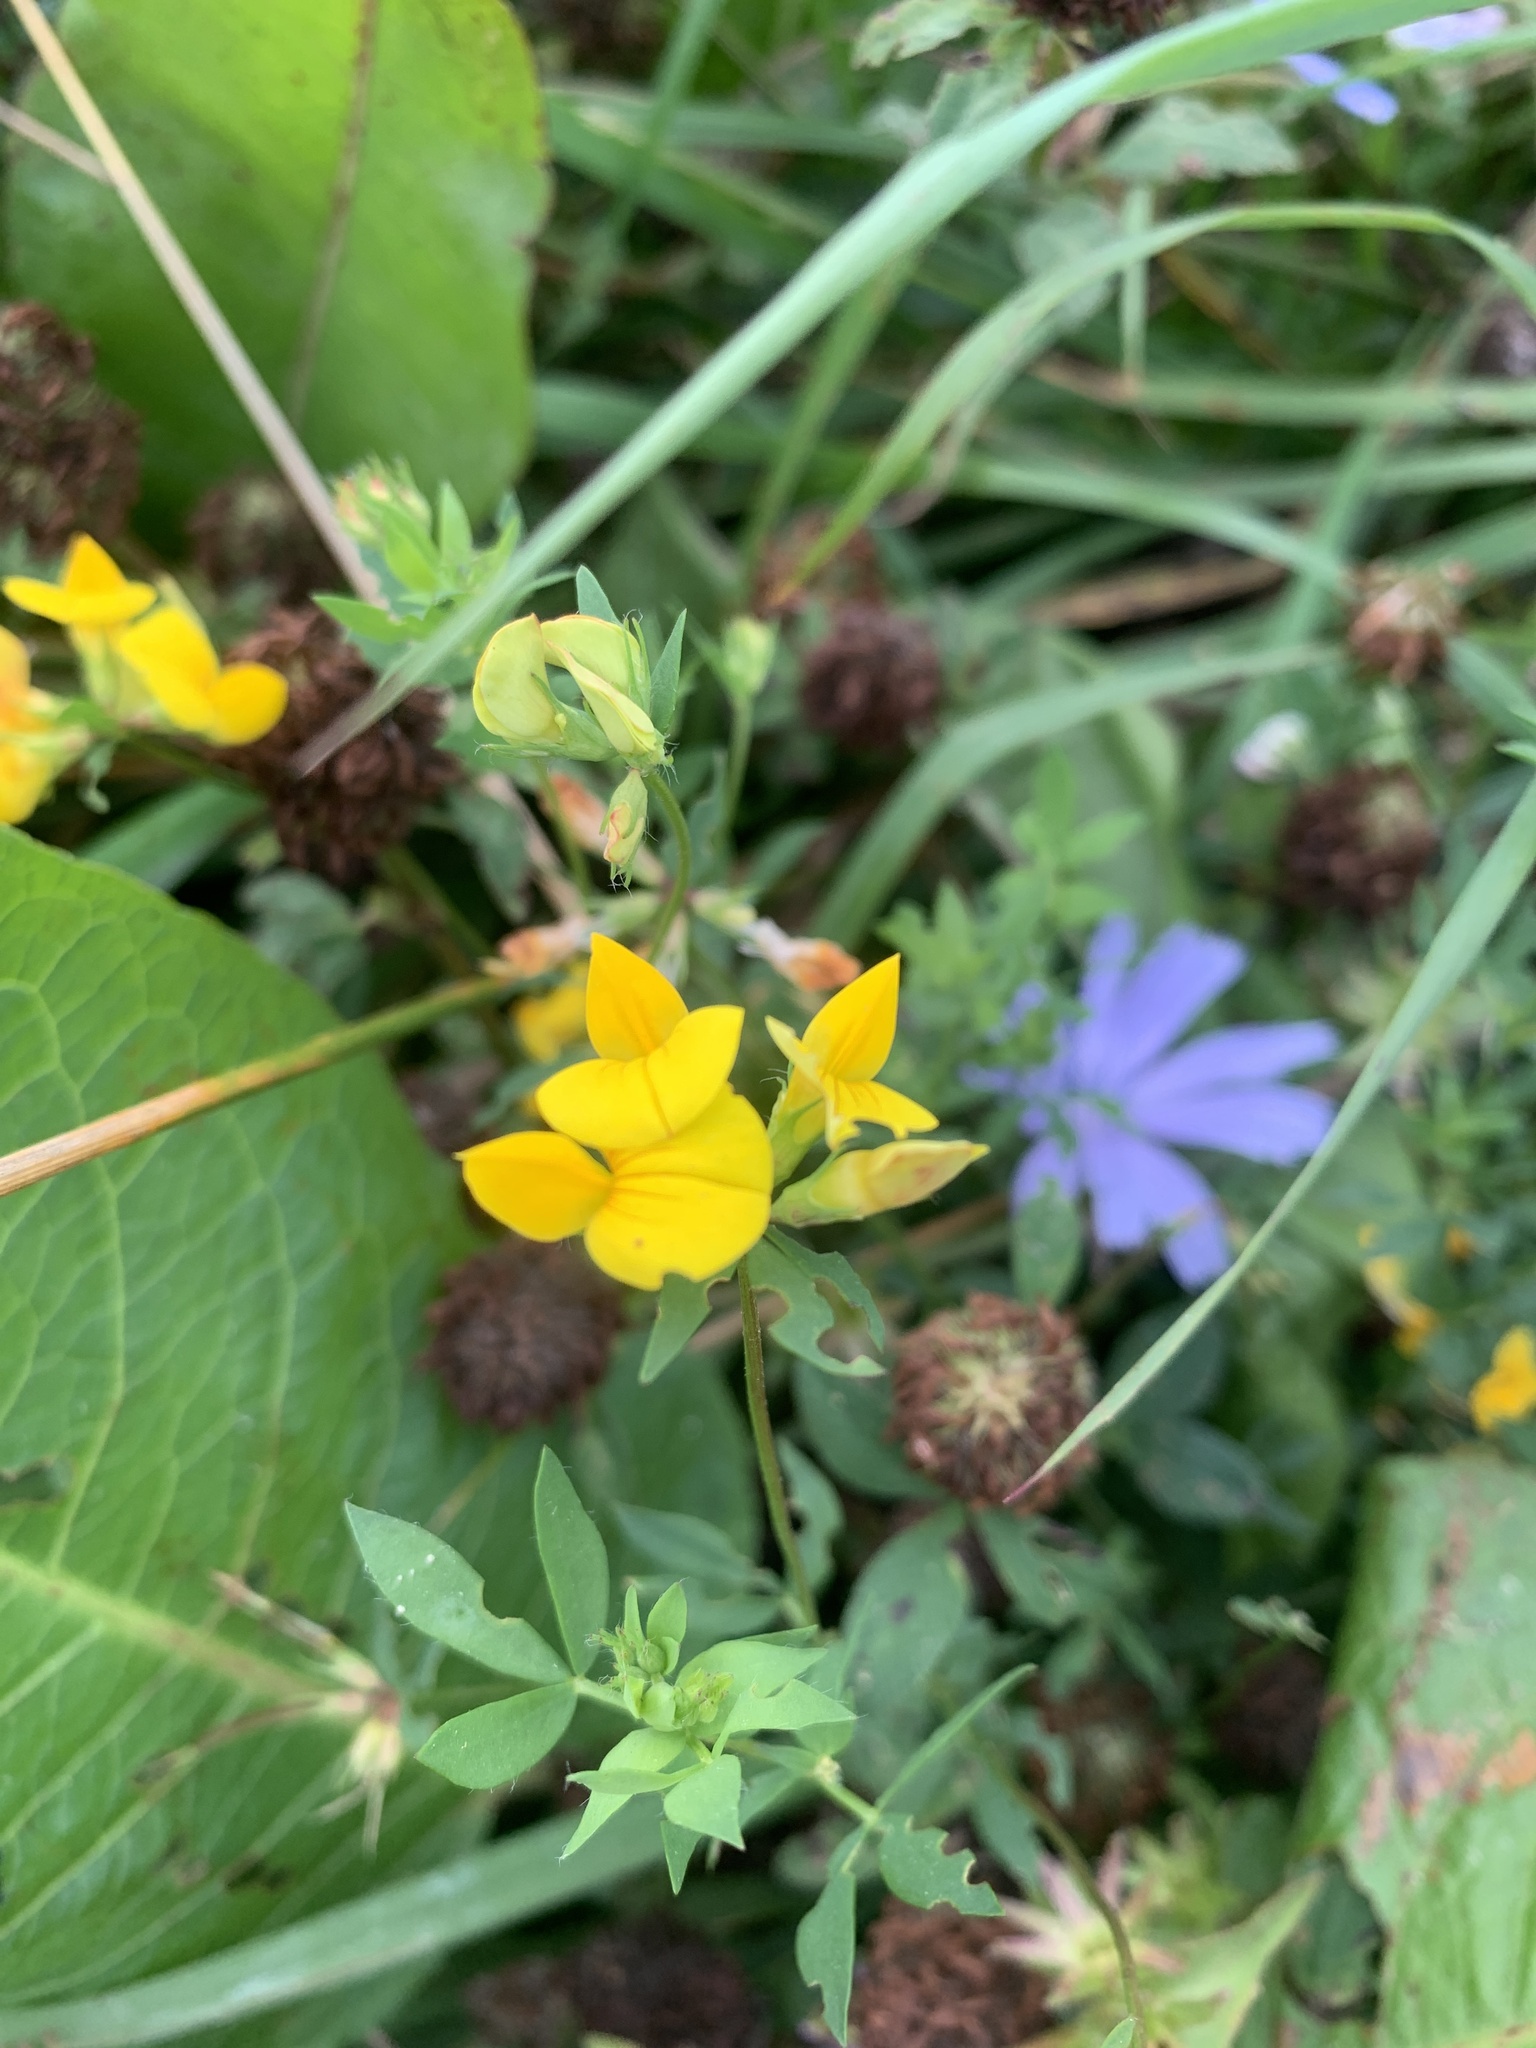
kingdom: Plantae
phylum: Tracheophyta
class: Magnoliopsida
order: Fabales
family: Fabaceae
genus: Lotus
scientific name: Lotus corniculatus
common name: Common bird's-foot-trefoil
